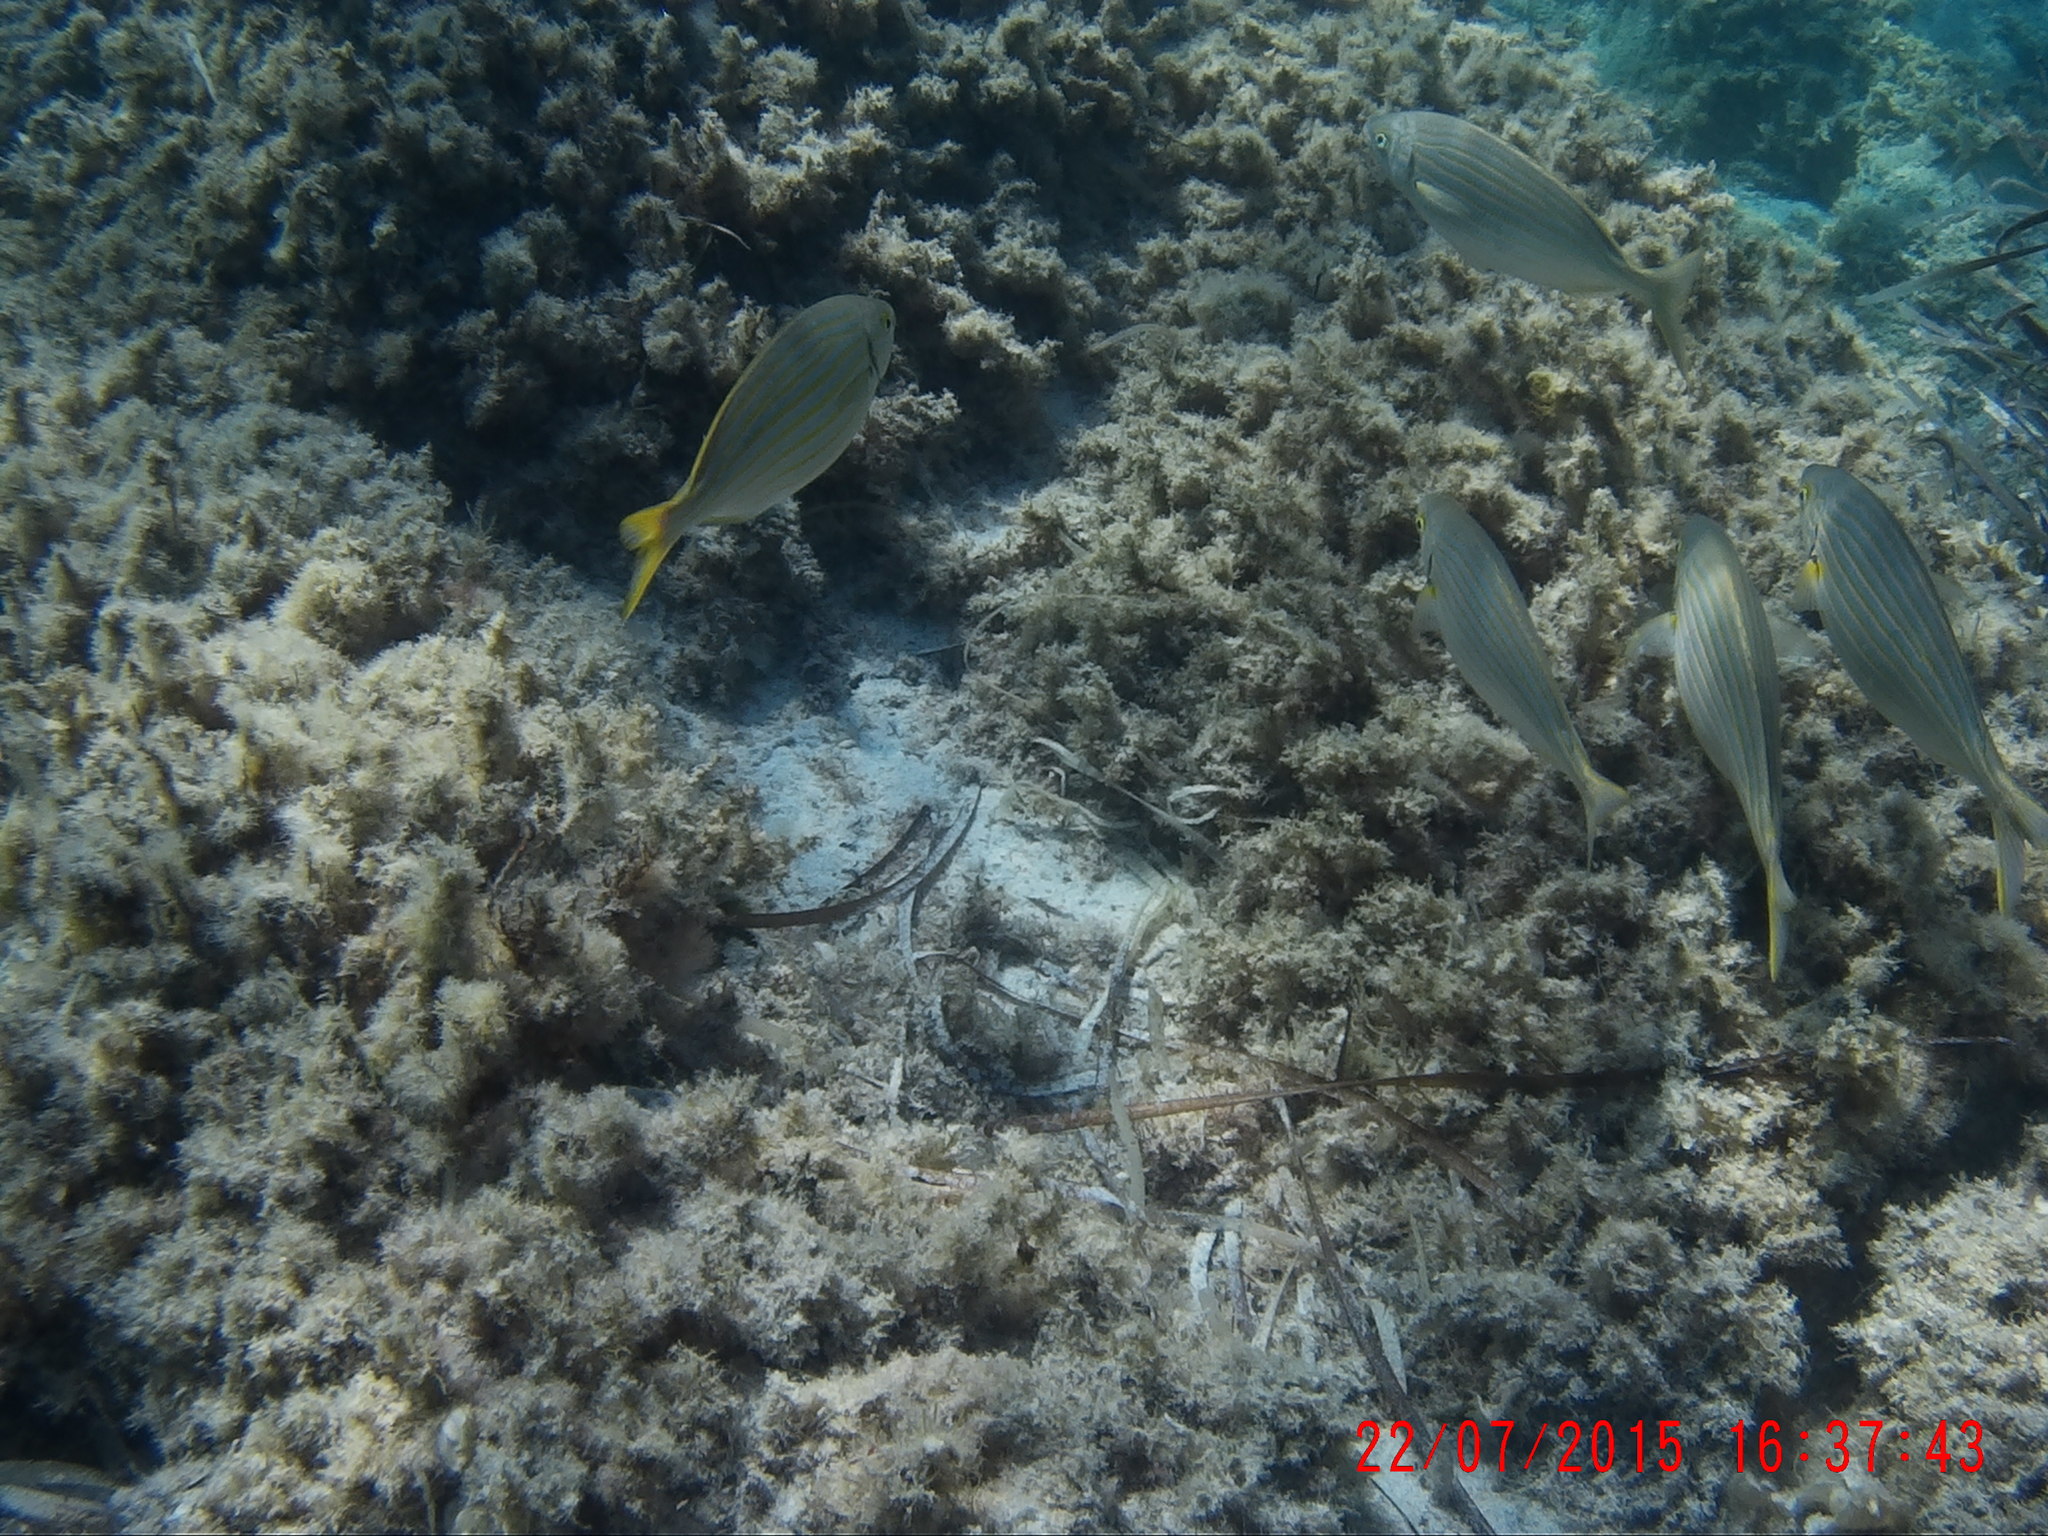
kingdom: Animalia
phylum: Chordata
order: Perciformes
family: Sparidae
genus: Sarpa
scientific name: Sarpa salpa
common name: Salema
